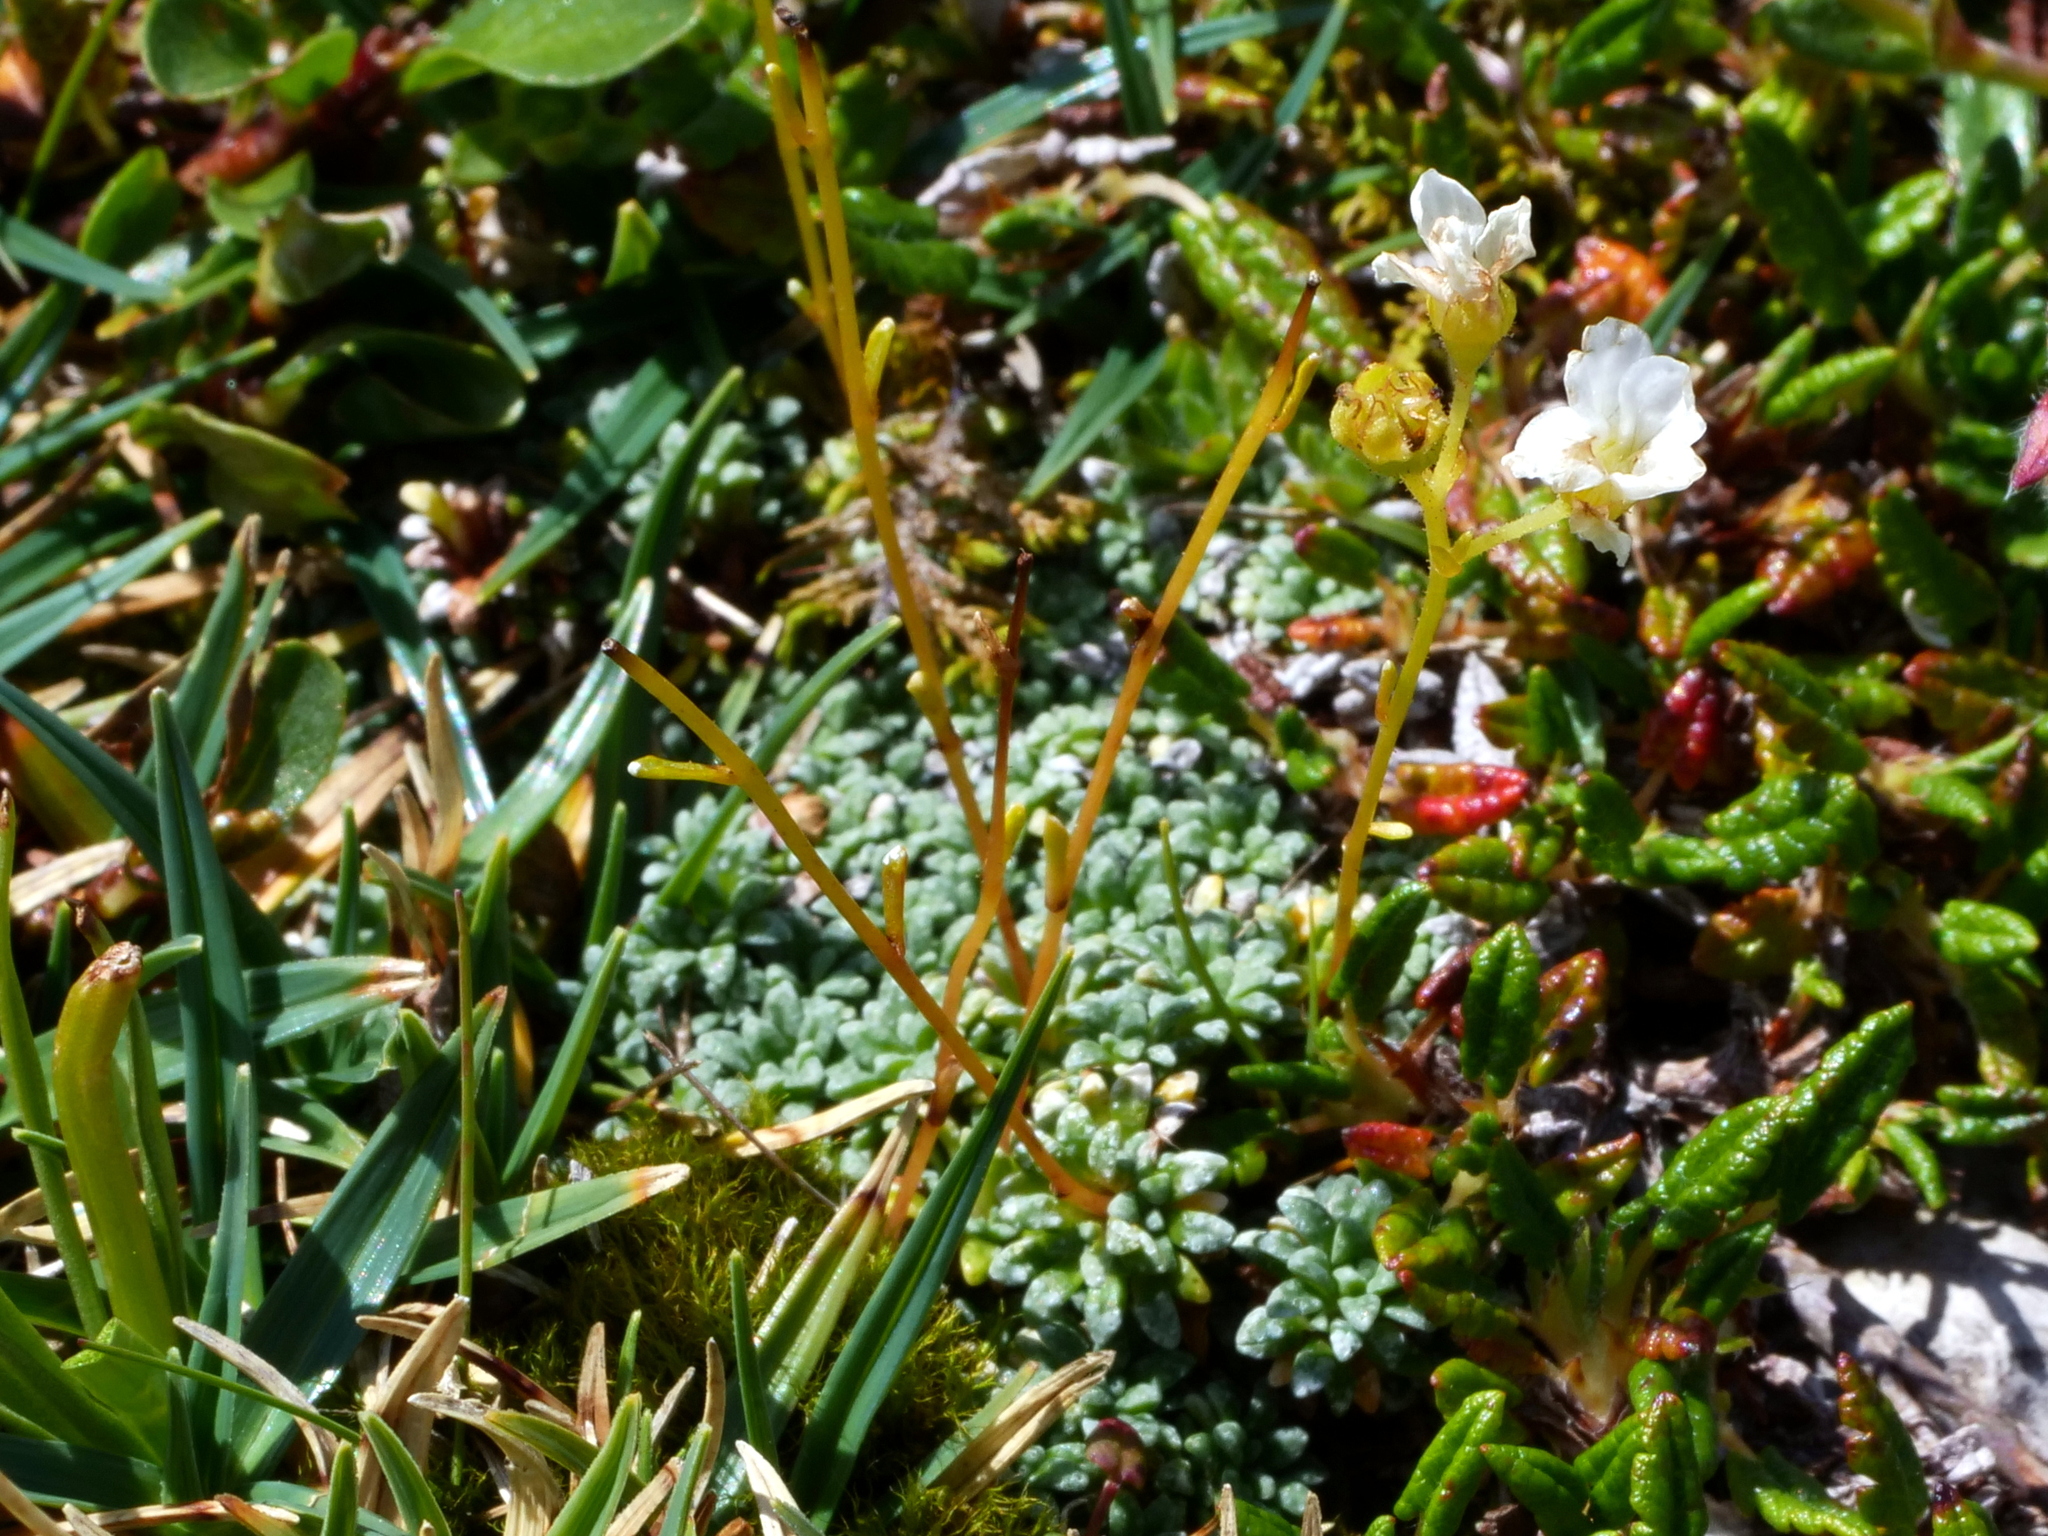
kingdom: Plantae
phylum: Tracheophyta
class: Magnoliopsida
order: Saxifragales
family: Saxifragaceae
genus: Saxifraga
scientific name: Saxifraga caesia
